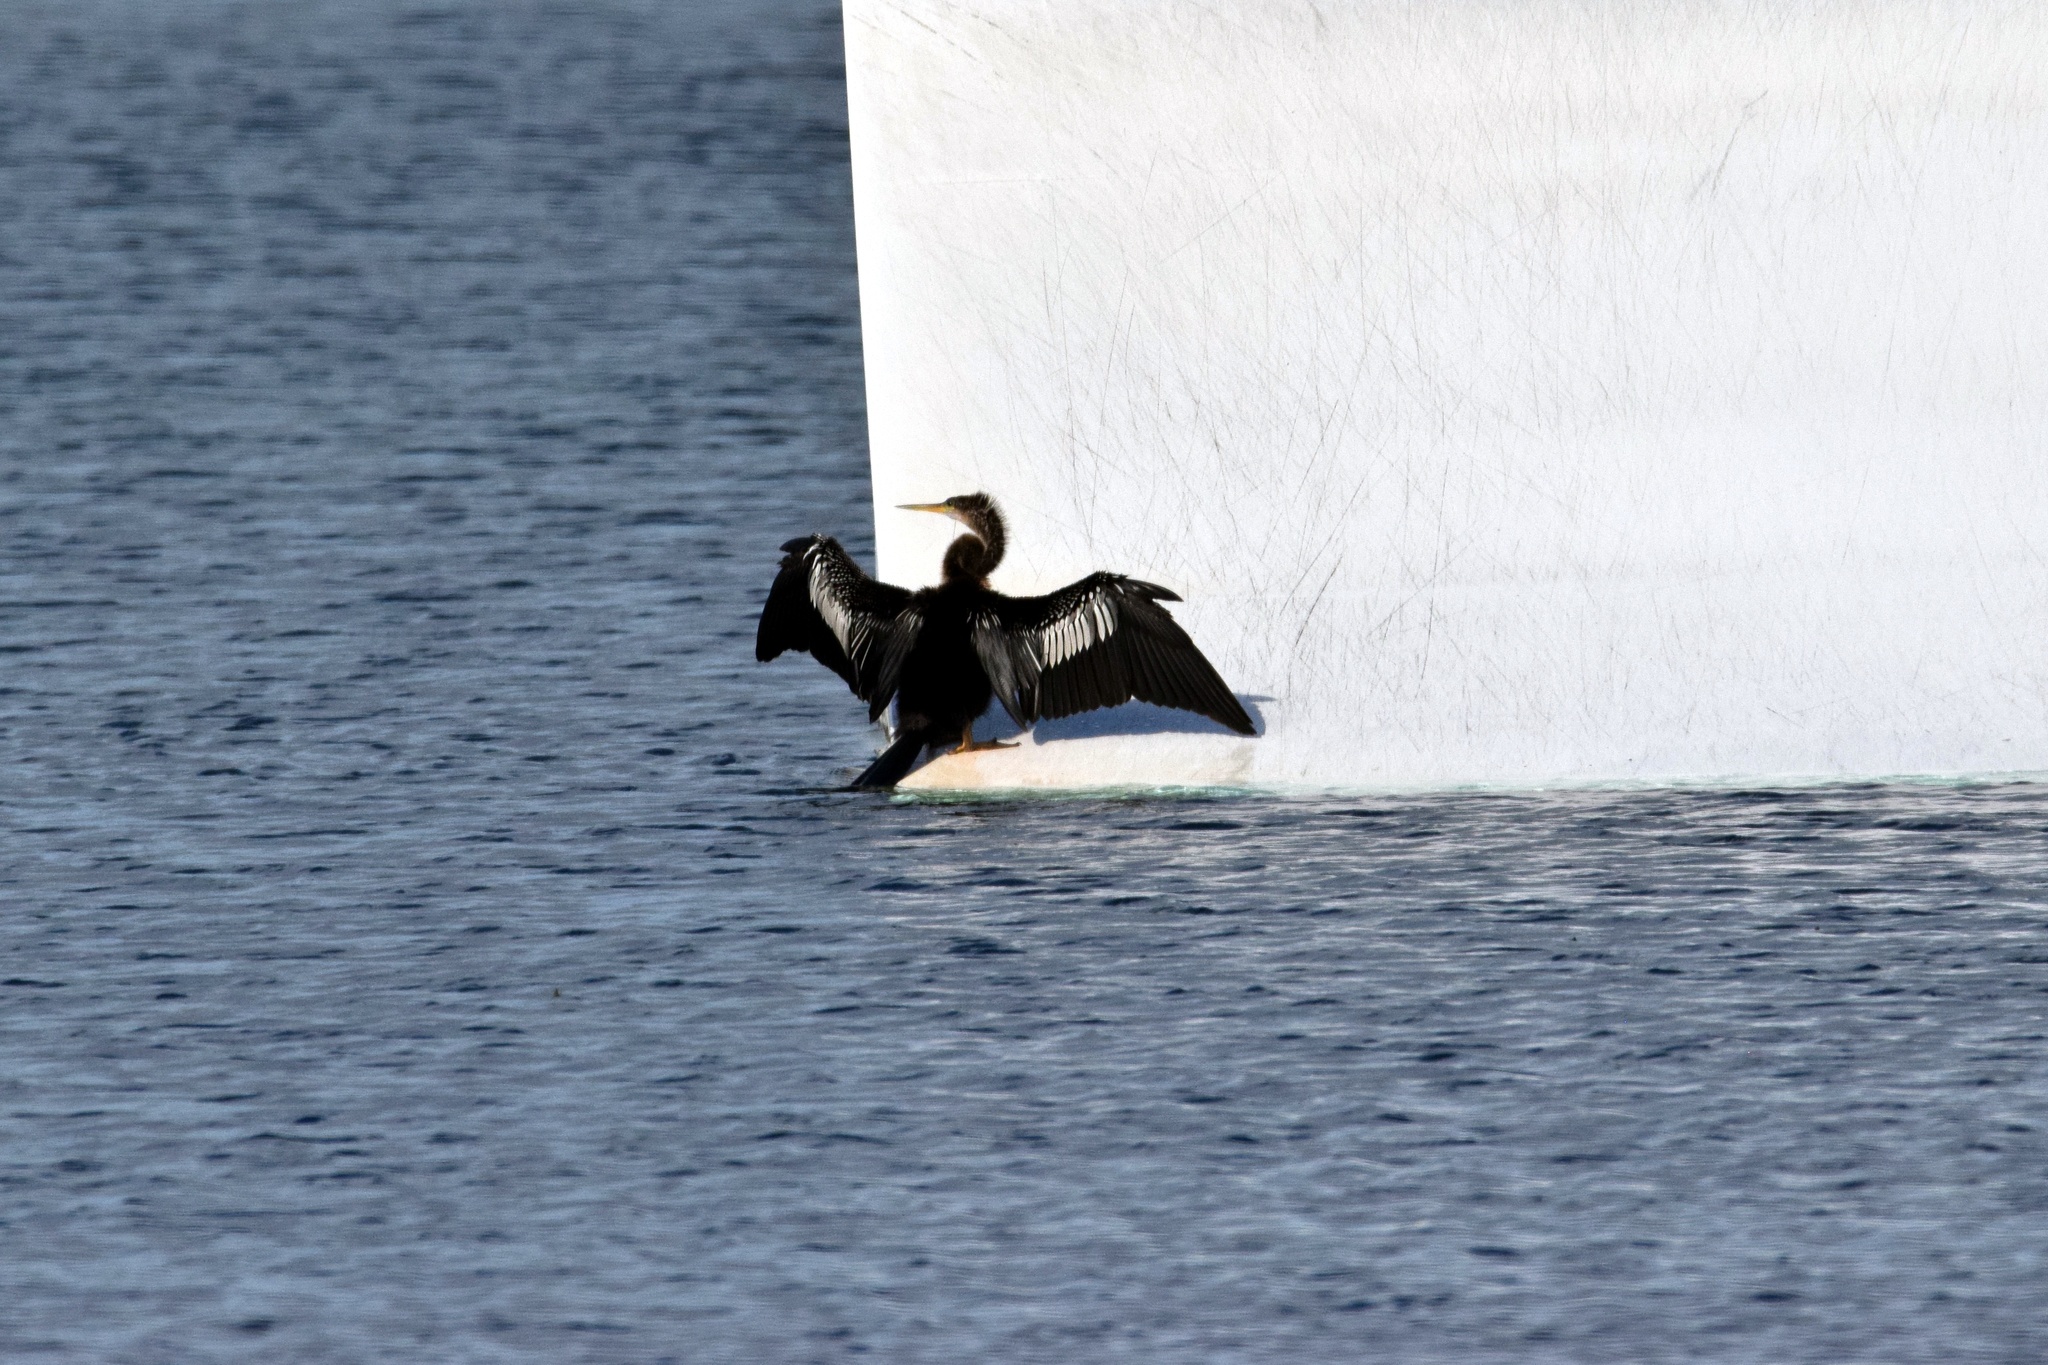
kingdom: Animalia
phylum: Chordata
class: Aves
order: Suliformes
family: Anhingidae
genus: Anhinga
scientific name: Anhinga anhinga
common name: Anhinga
